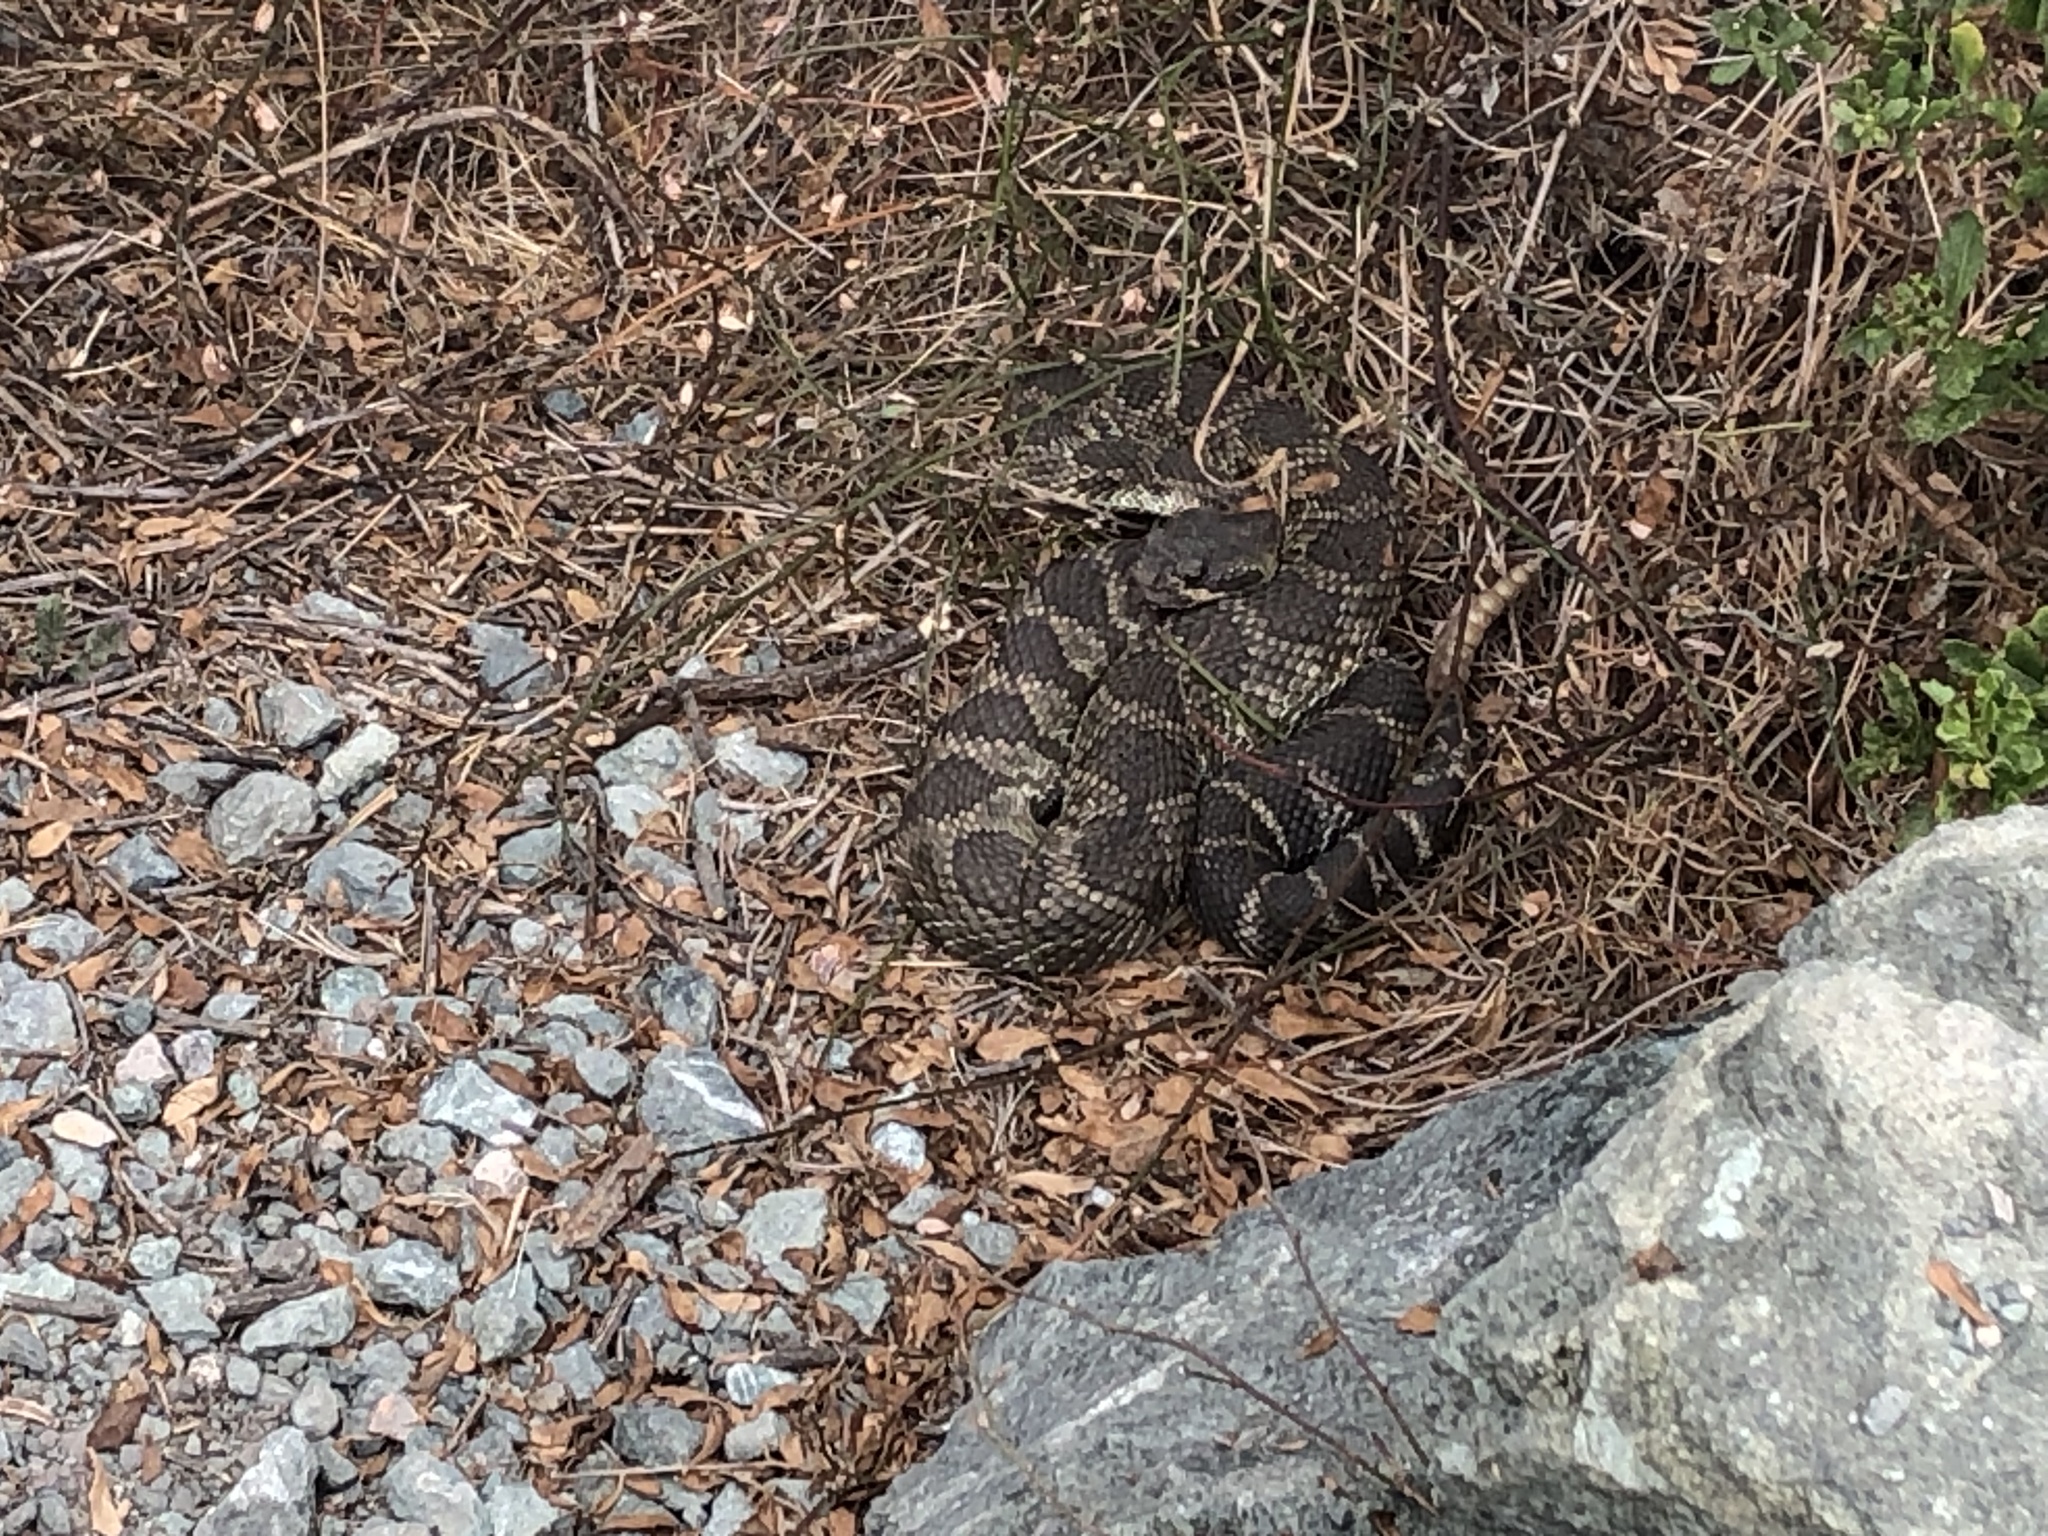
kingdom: Animalia
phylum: Chordata
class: Squamata
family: Viperidae
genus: Crotalus
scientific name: Crotalus oreganus
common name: Abyssus
